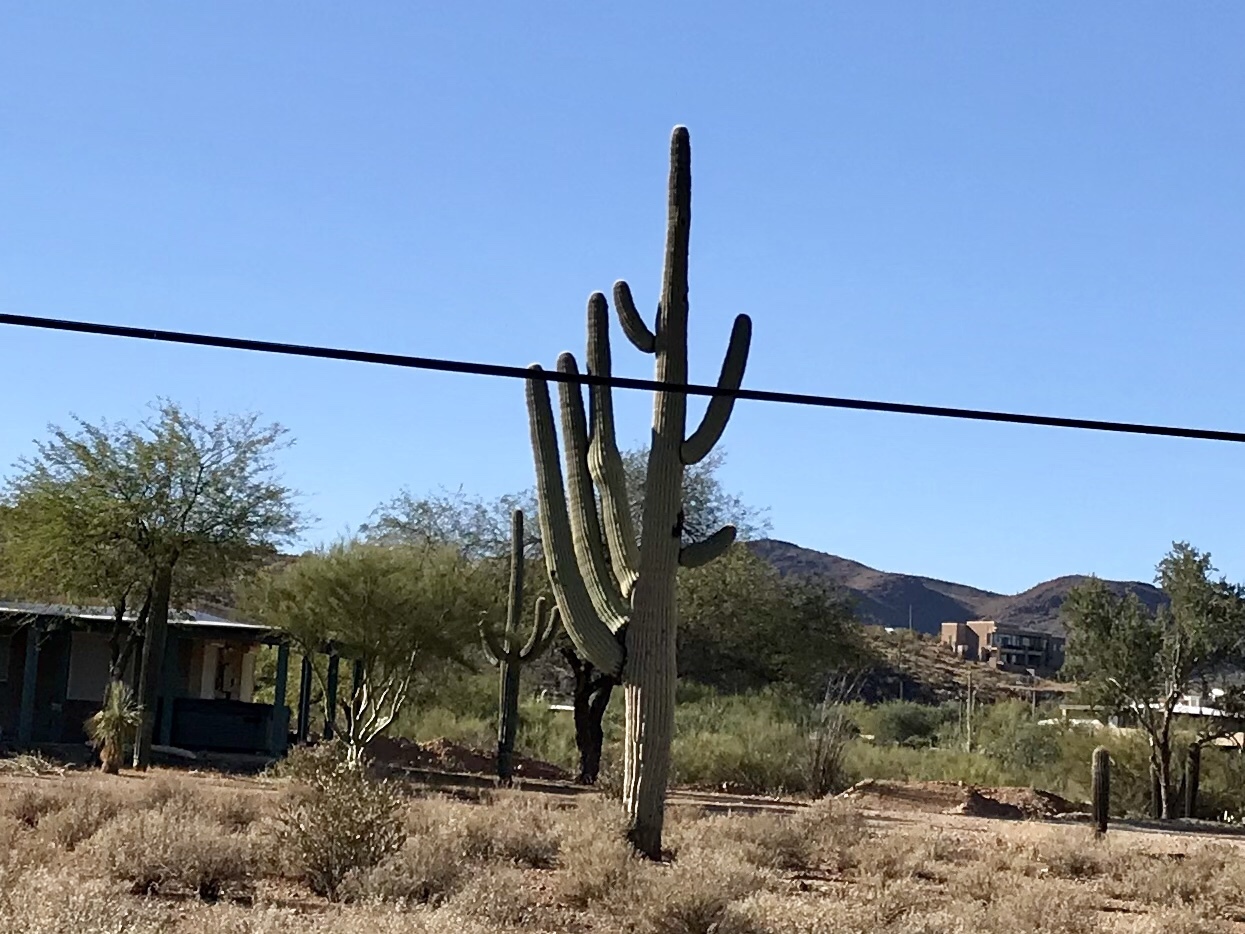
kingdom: Plantae
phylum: Tracheophyta
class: Magnoliopsida
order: Caryophyllales
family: Cactaceae
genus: Carnegiea
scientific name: Carnegiea gigantea
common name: Saguaro
